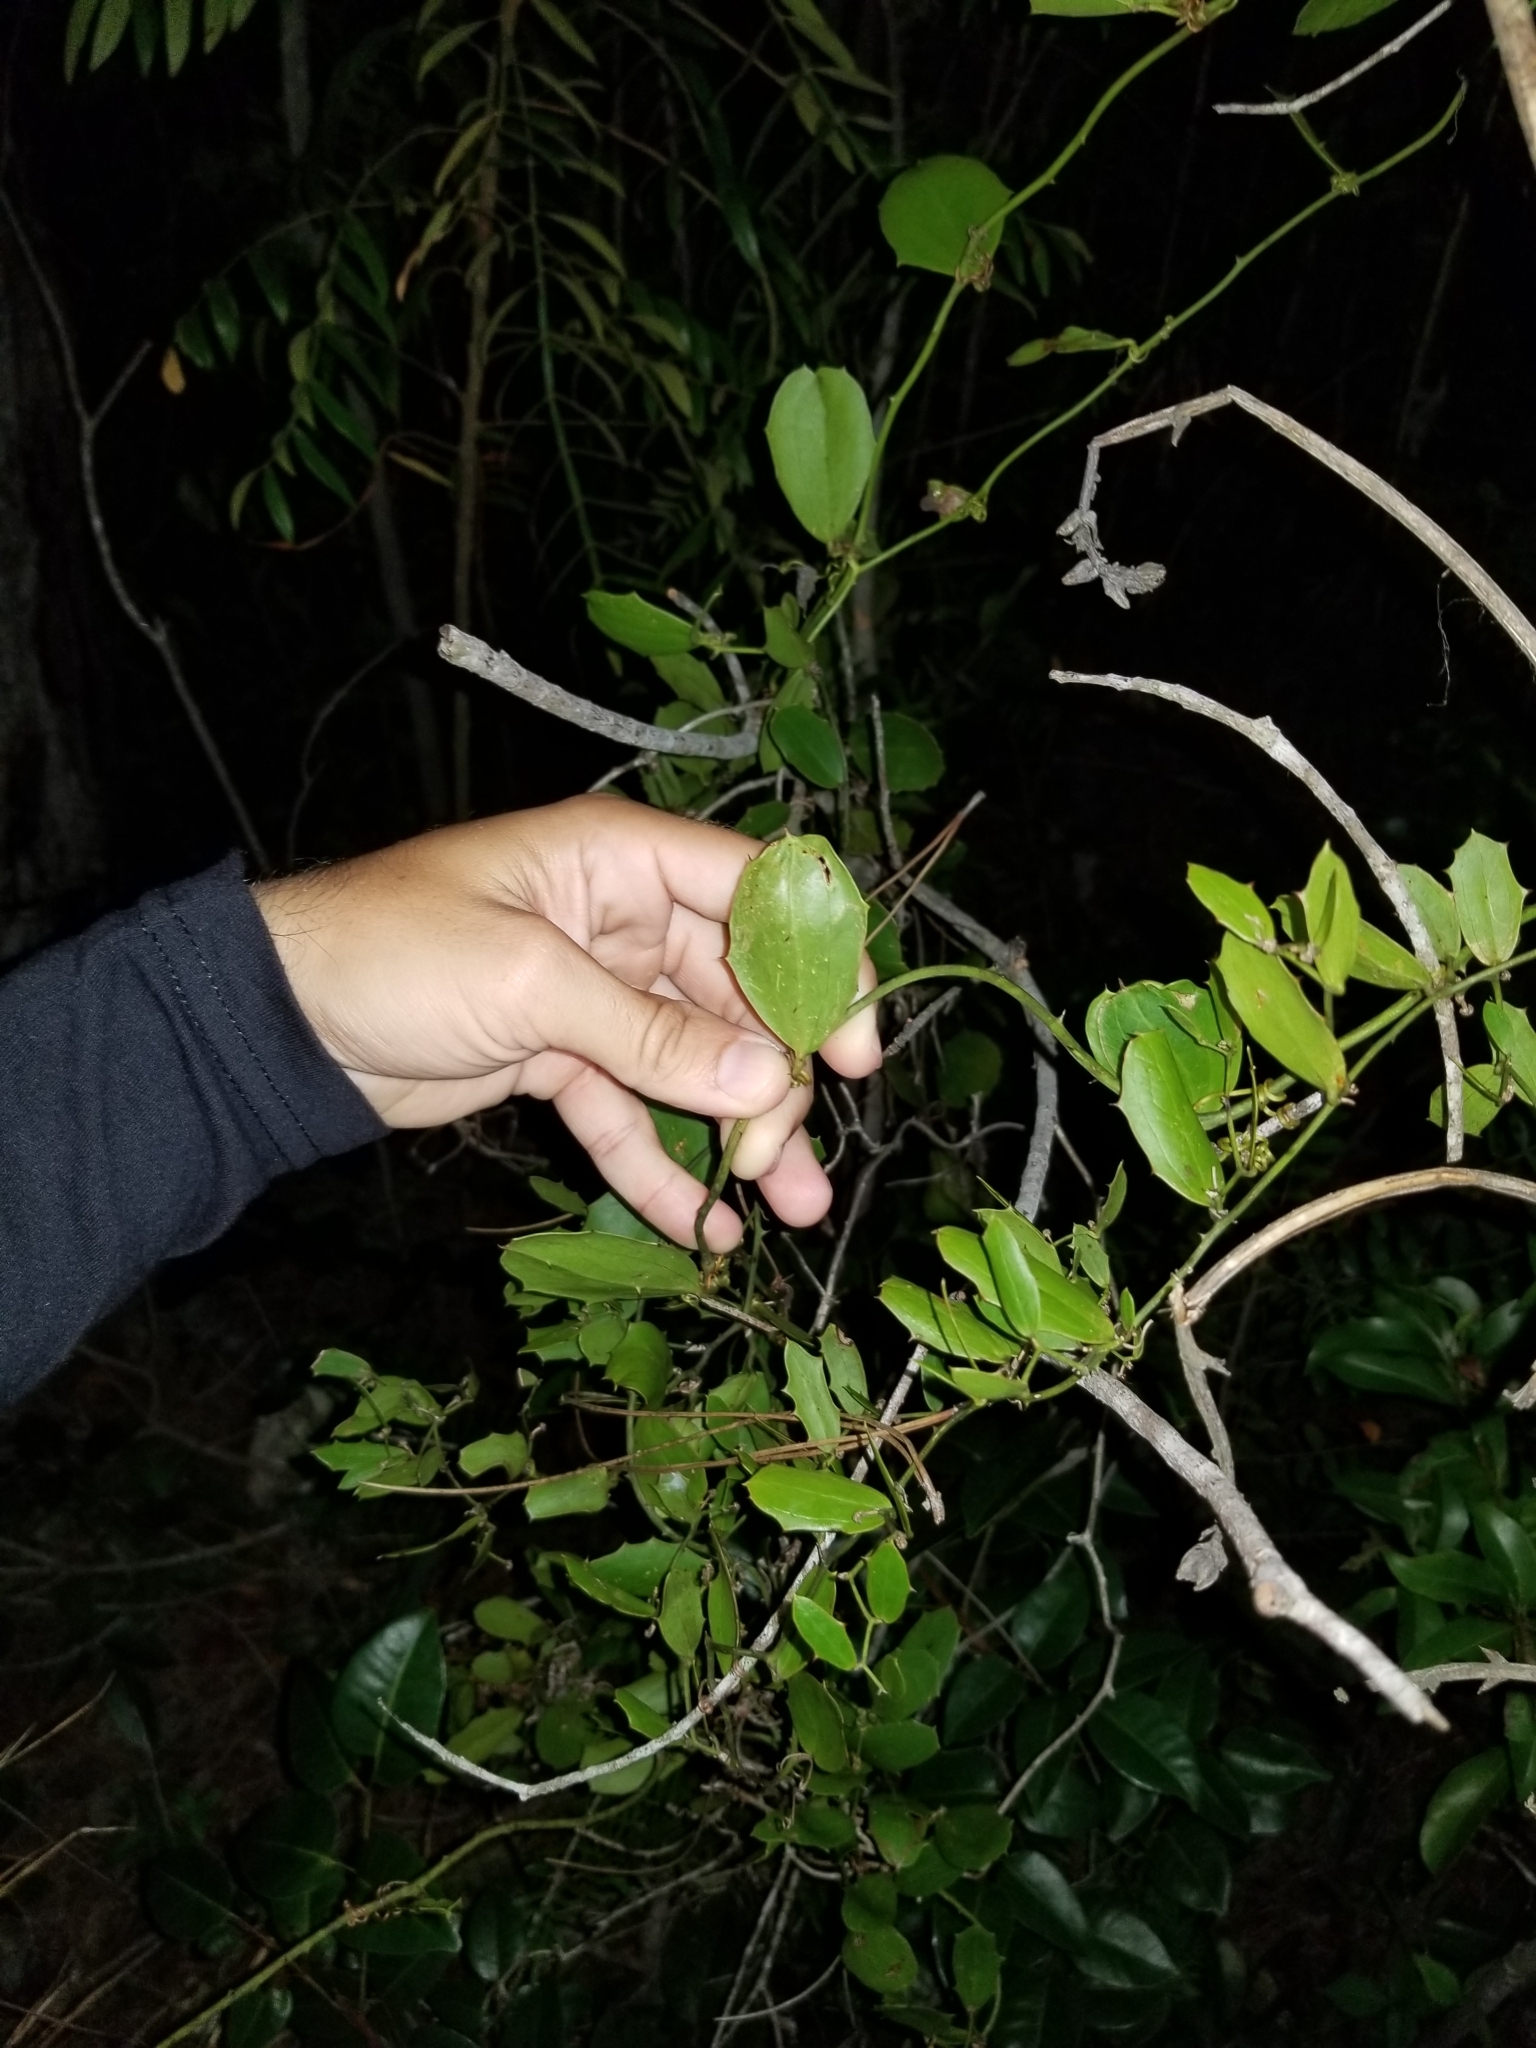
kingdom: Plantae
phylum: Tracheophyta
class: Liliopsida
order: Liliales
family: Smilacaceae
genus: Smilax
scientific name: Smilax havanensis
